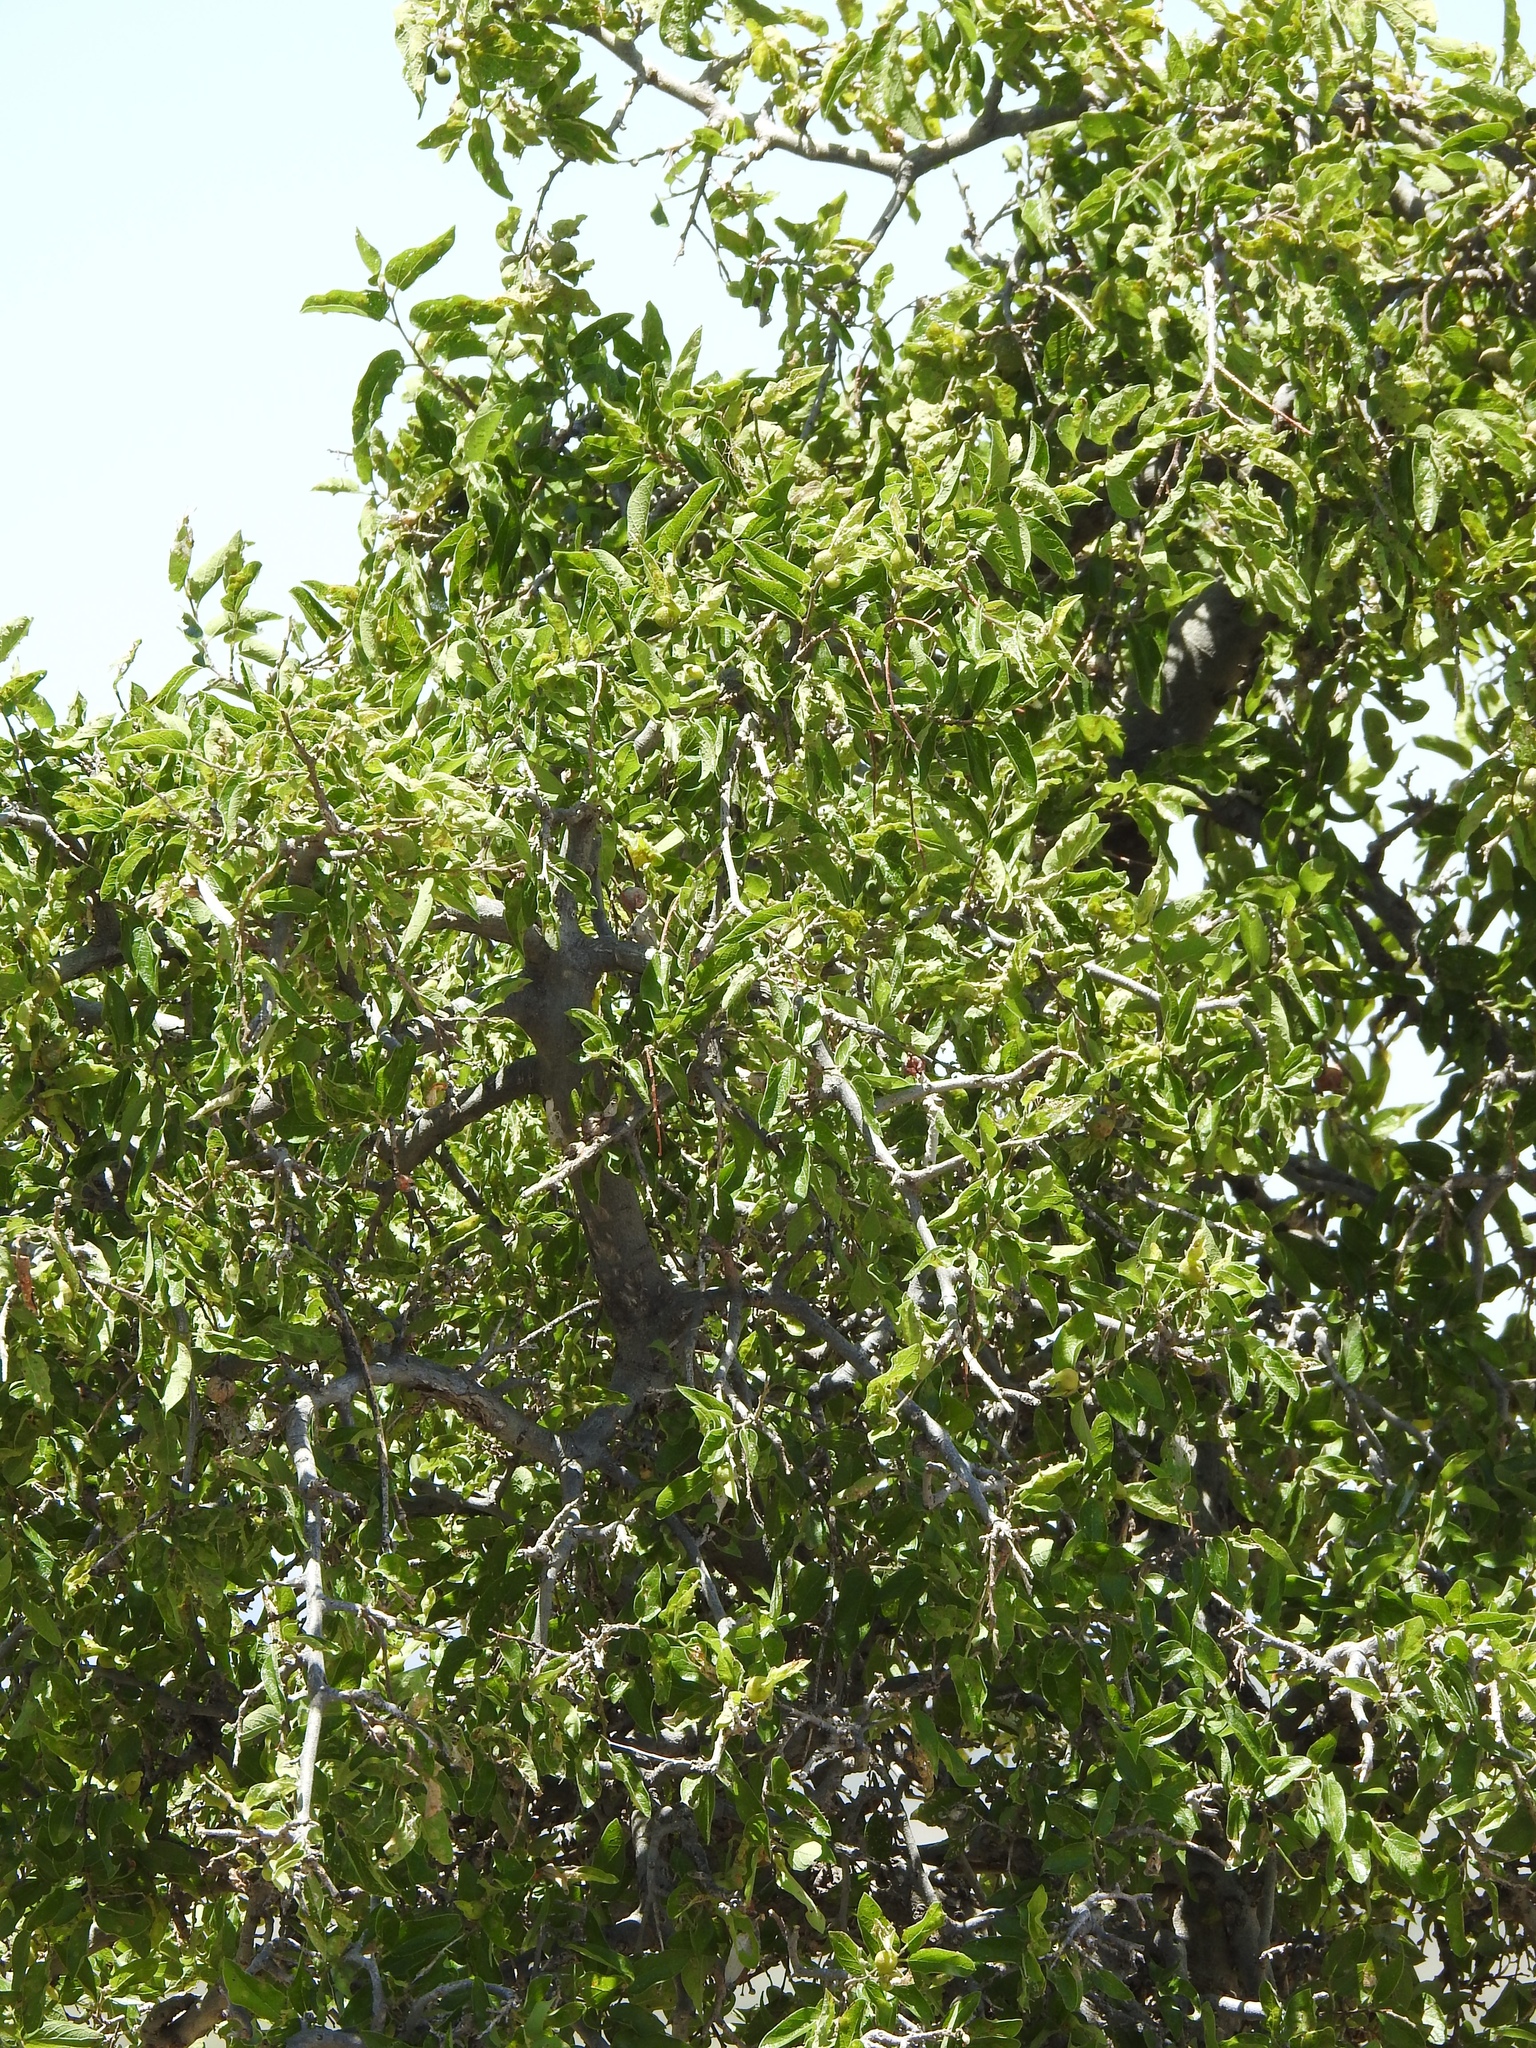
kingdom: Plantae
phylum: Tracheophyta
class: Magnoliopsida
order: Rosales
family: Cannabaceae
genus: Celtis
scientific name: Celtis reticulata
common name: Netleaf hackberry
